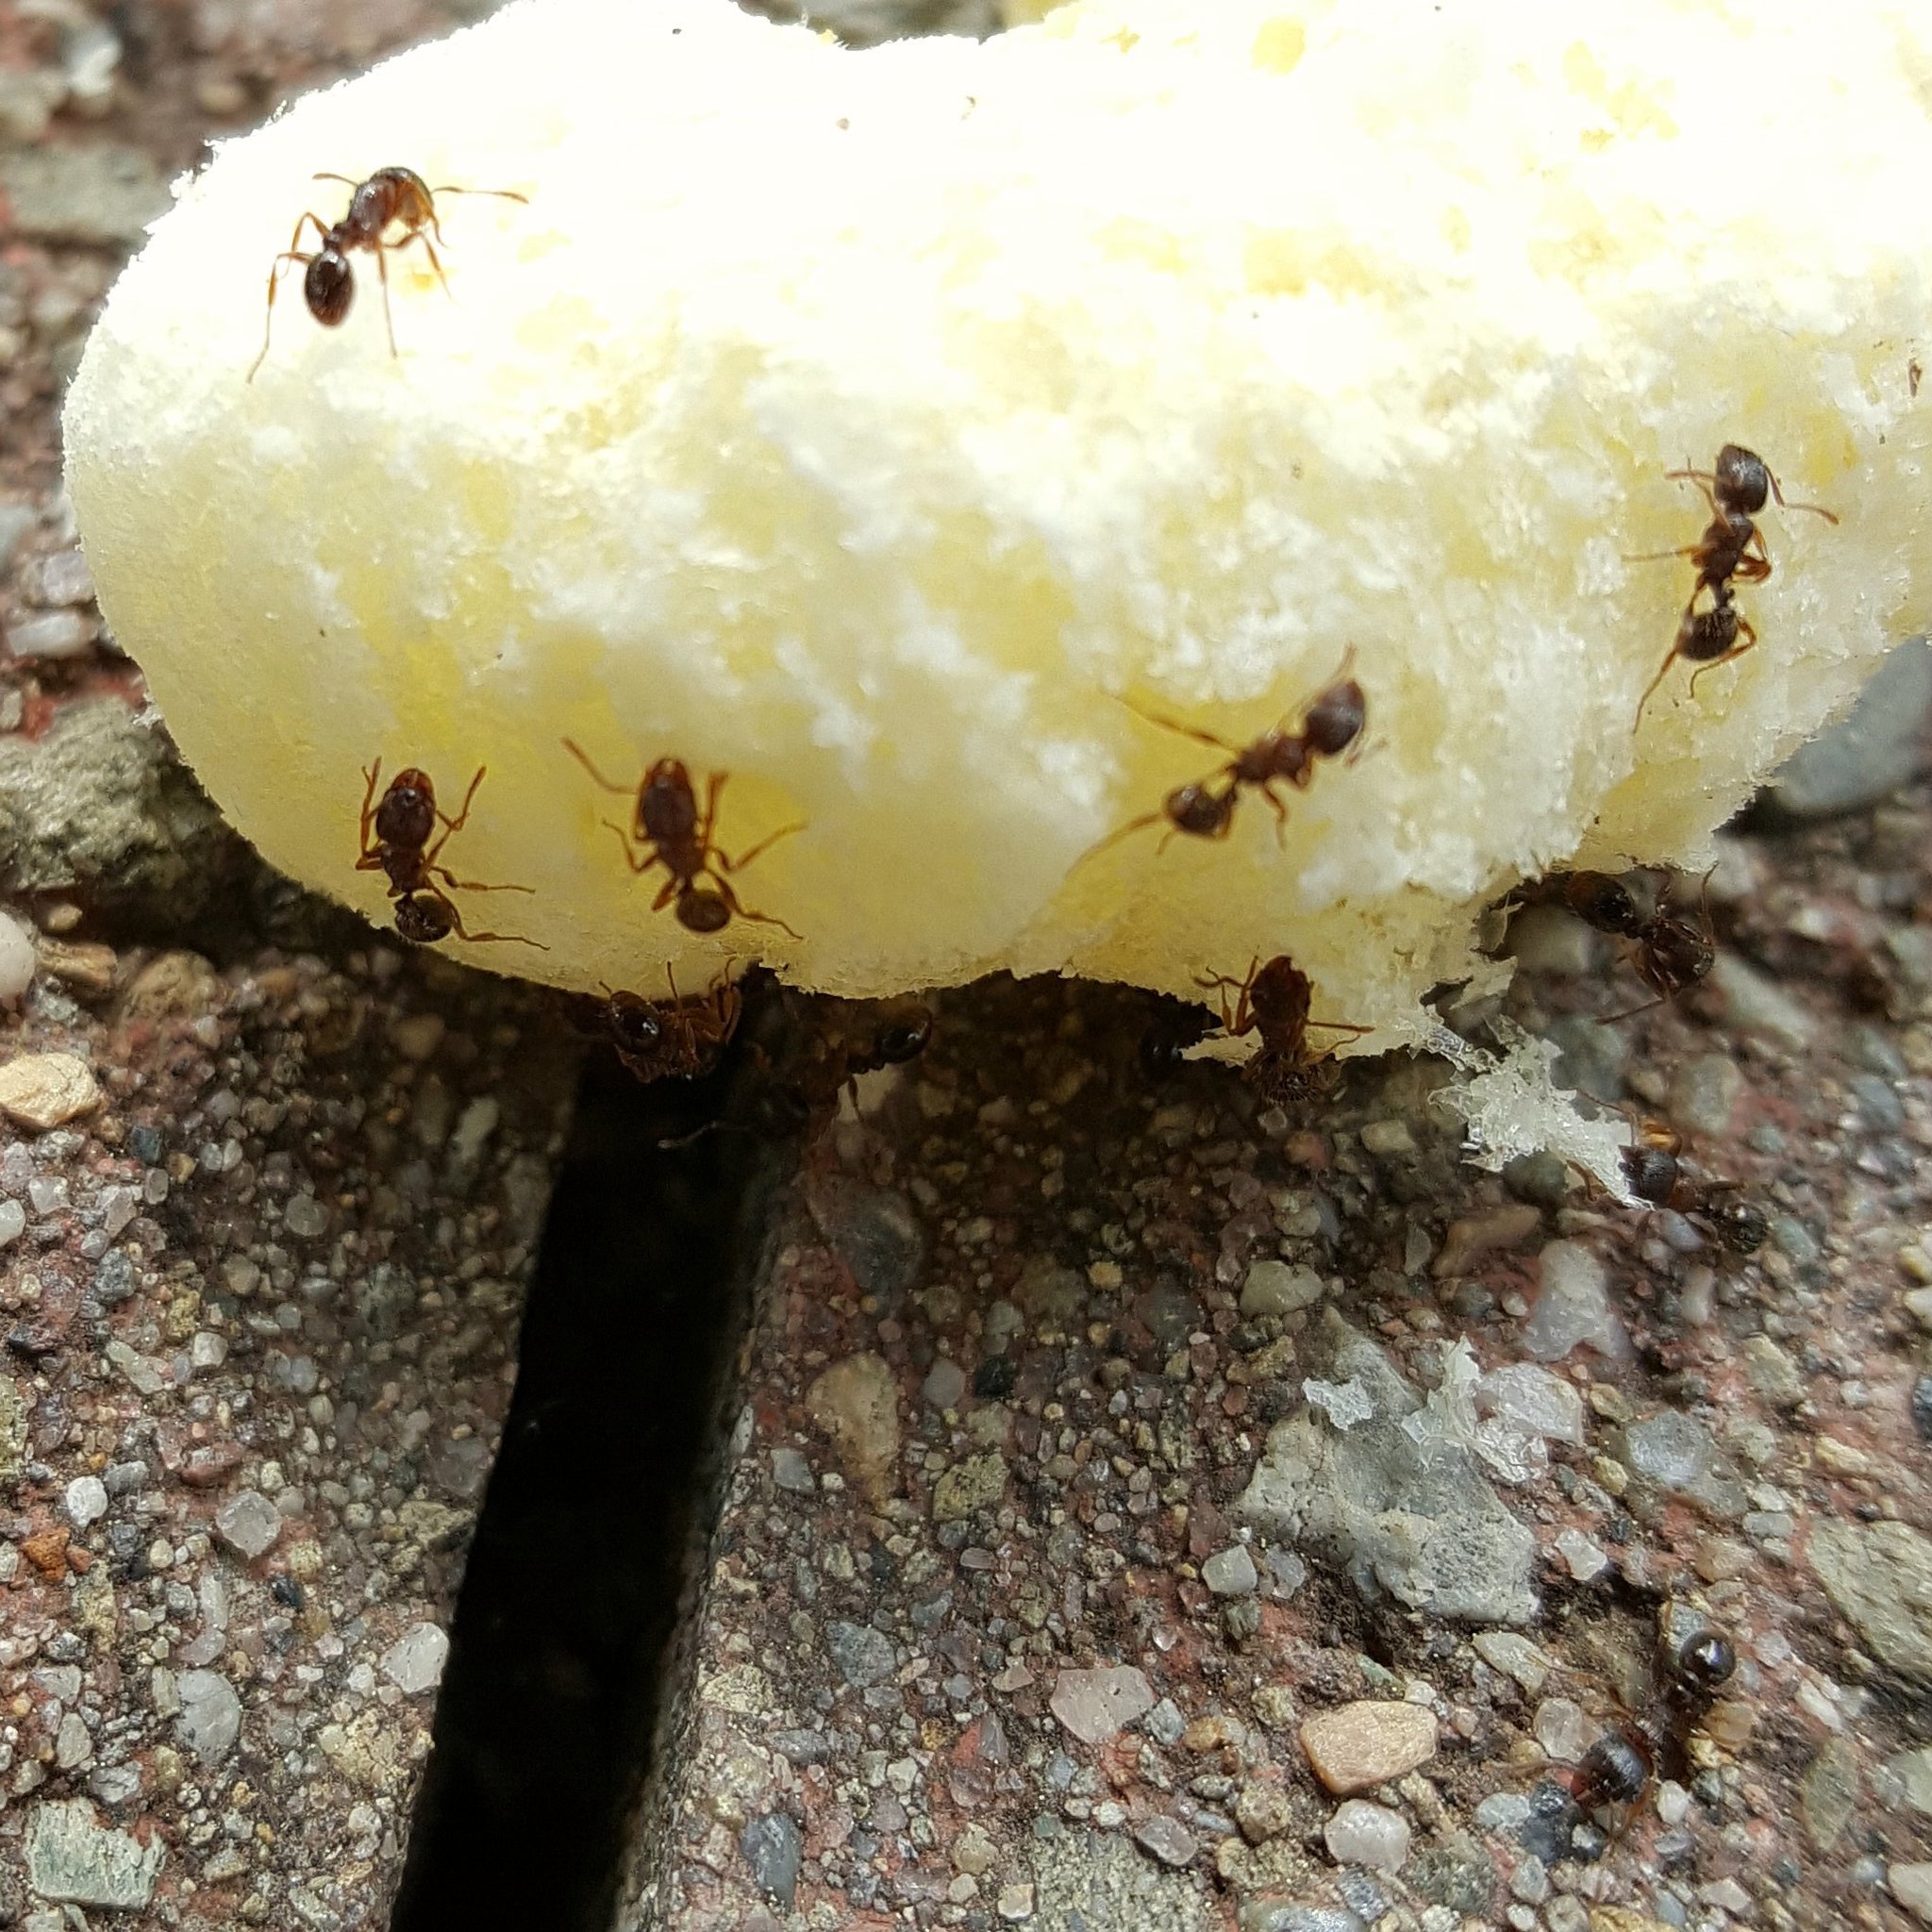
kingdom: Animalia
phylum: Arthropoda
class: Insecta
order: Hymenoptera
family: Formicidae
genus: Tetramorium
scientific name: Tetramorium immigrans
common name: Pavement ant
